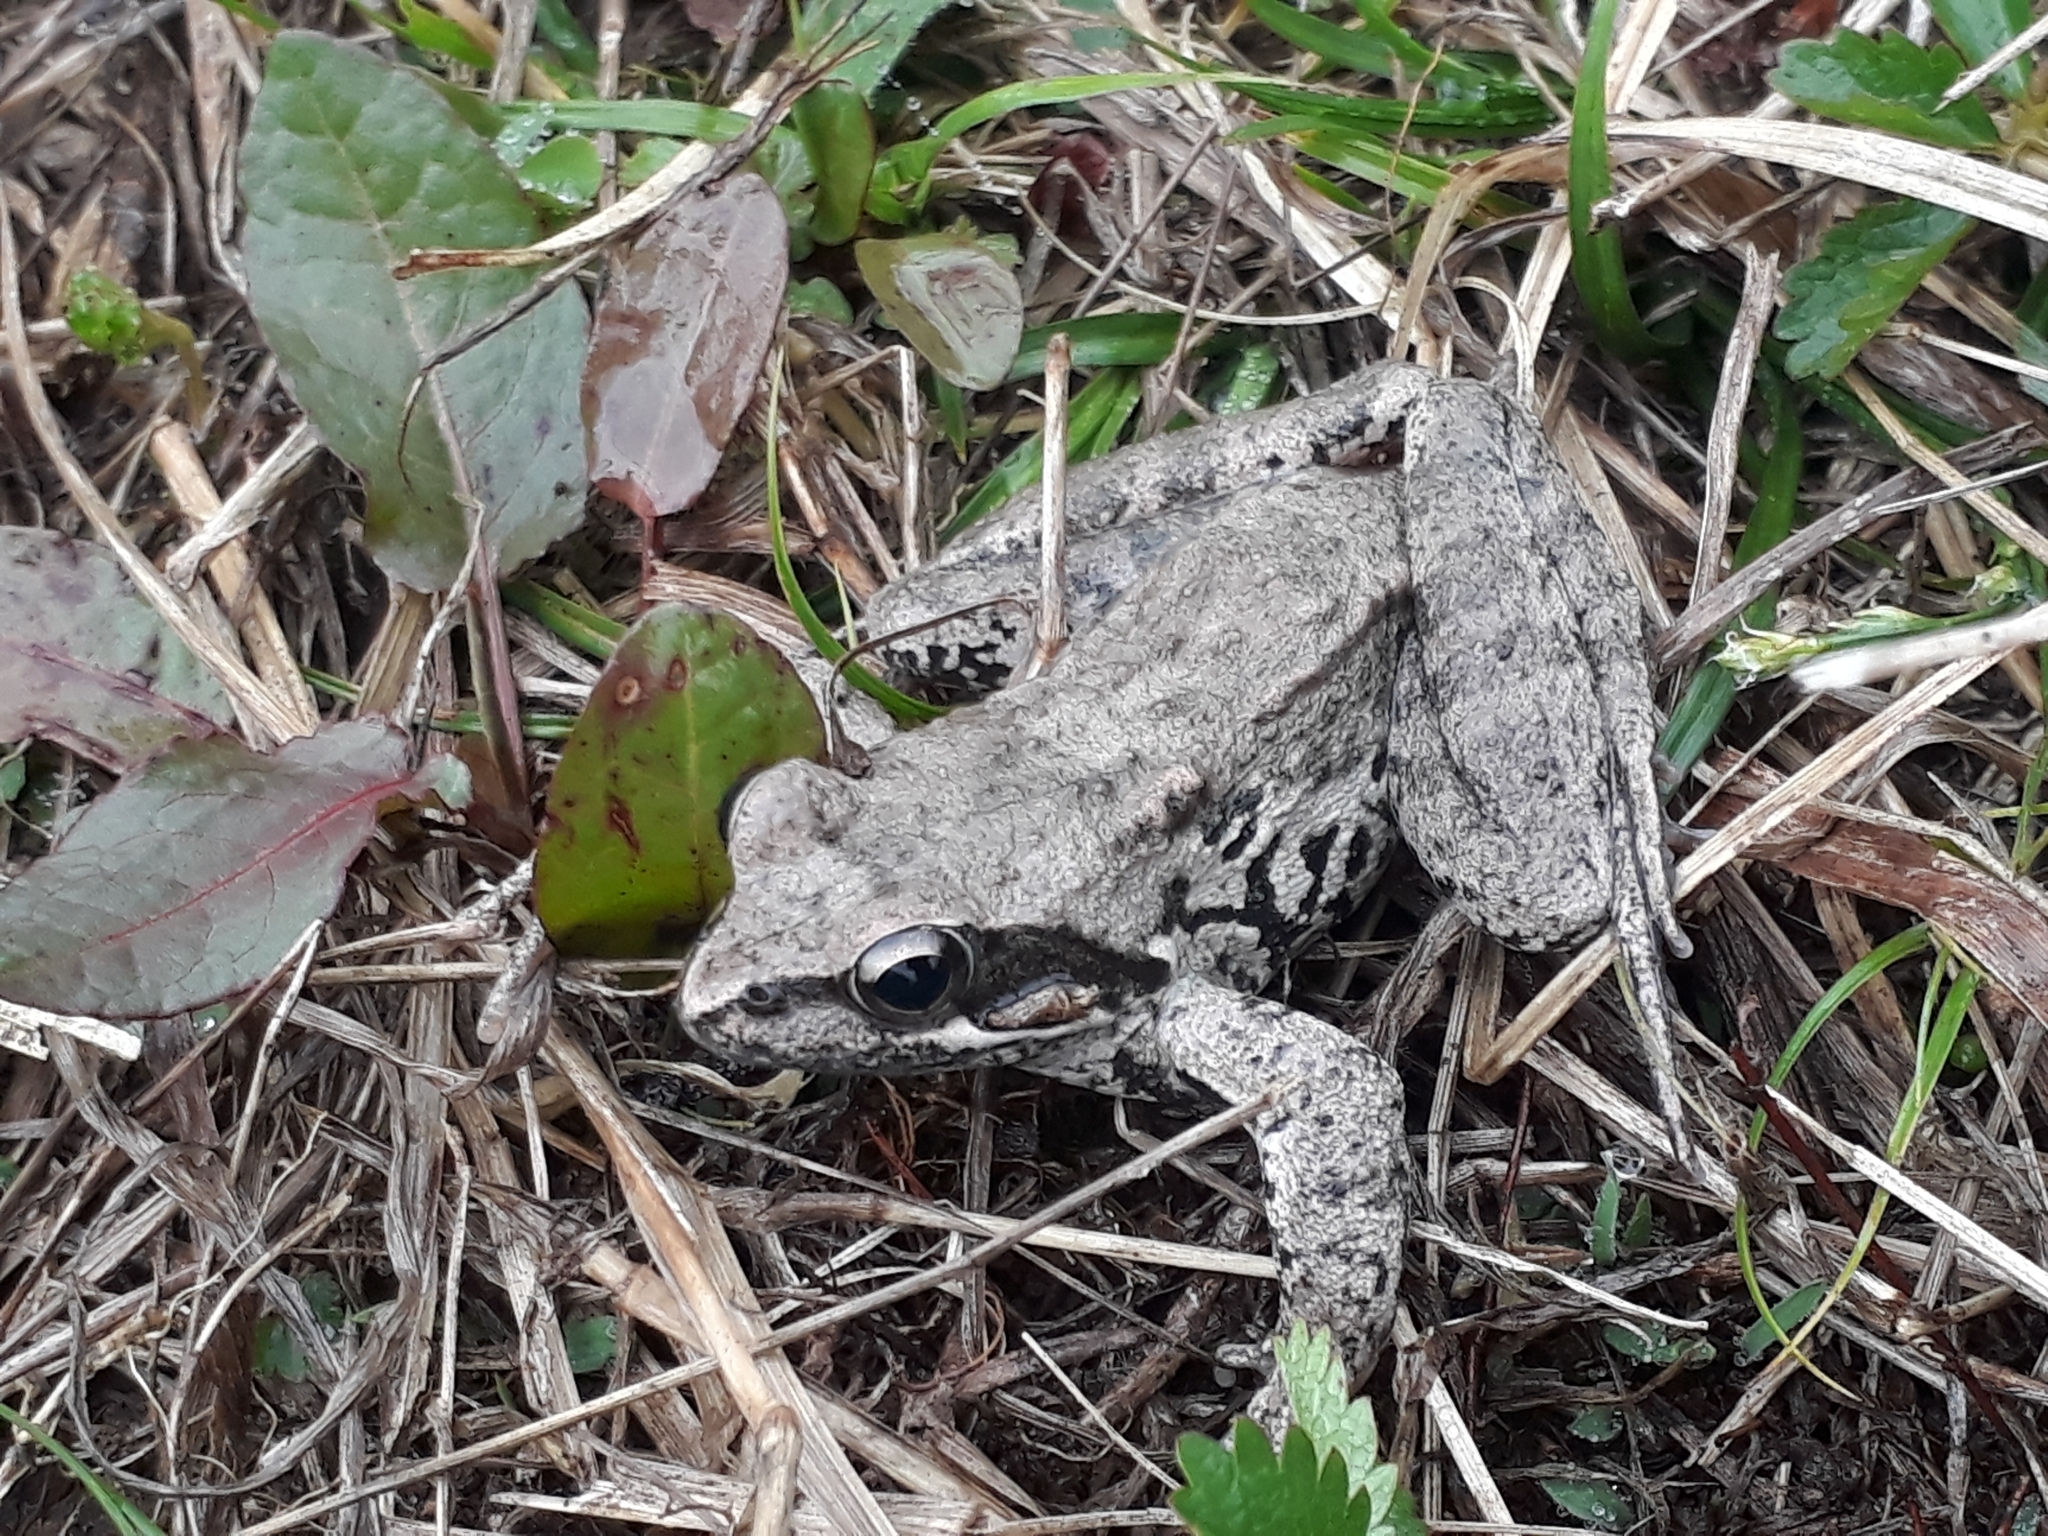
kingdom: Animalia
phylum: Chordata
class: Amphibia
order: Anura
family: Ranidae
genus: Rana
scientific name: Rana pseudodalmatina
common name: Hyrcanian frog
